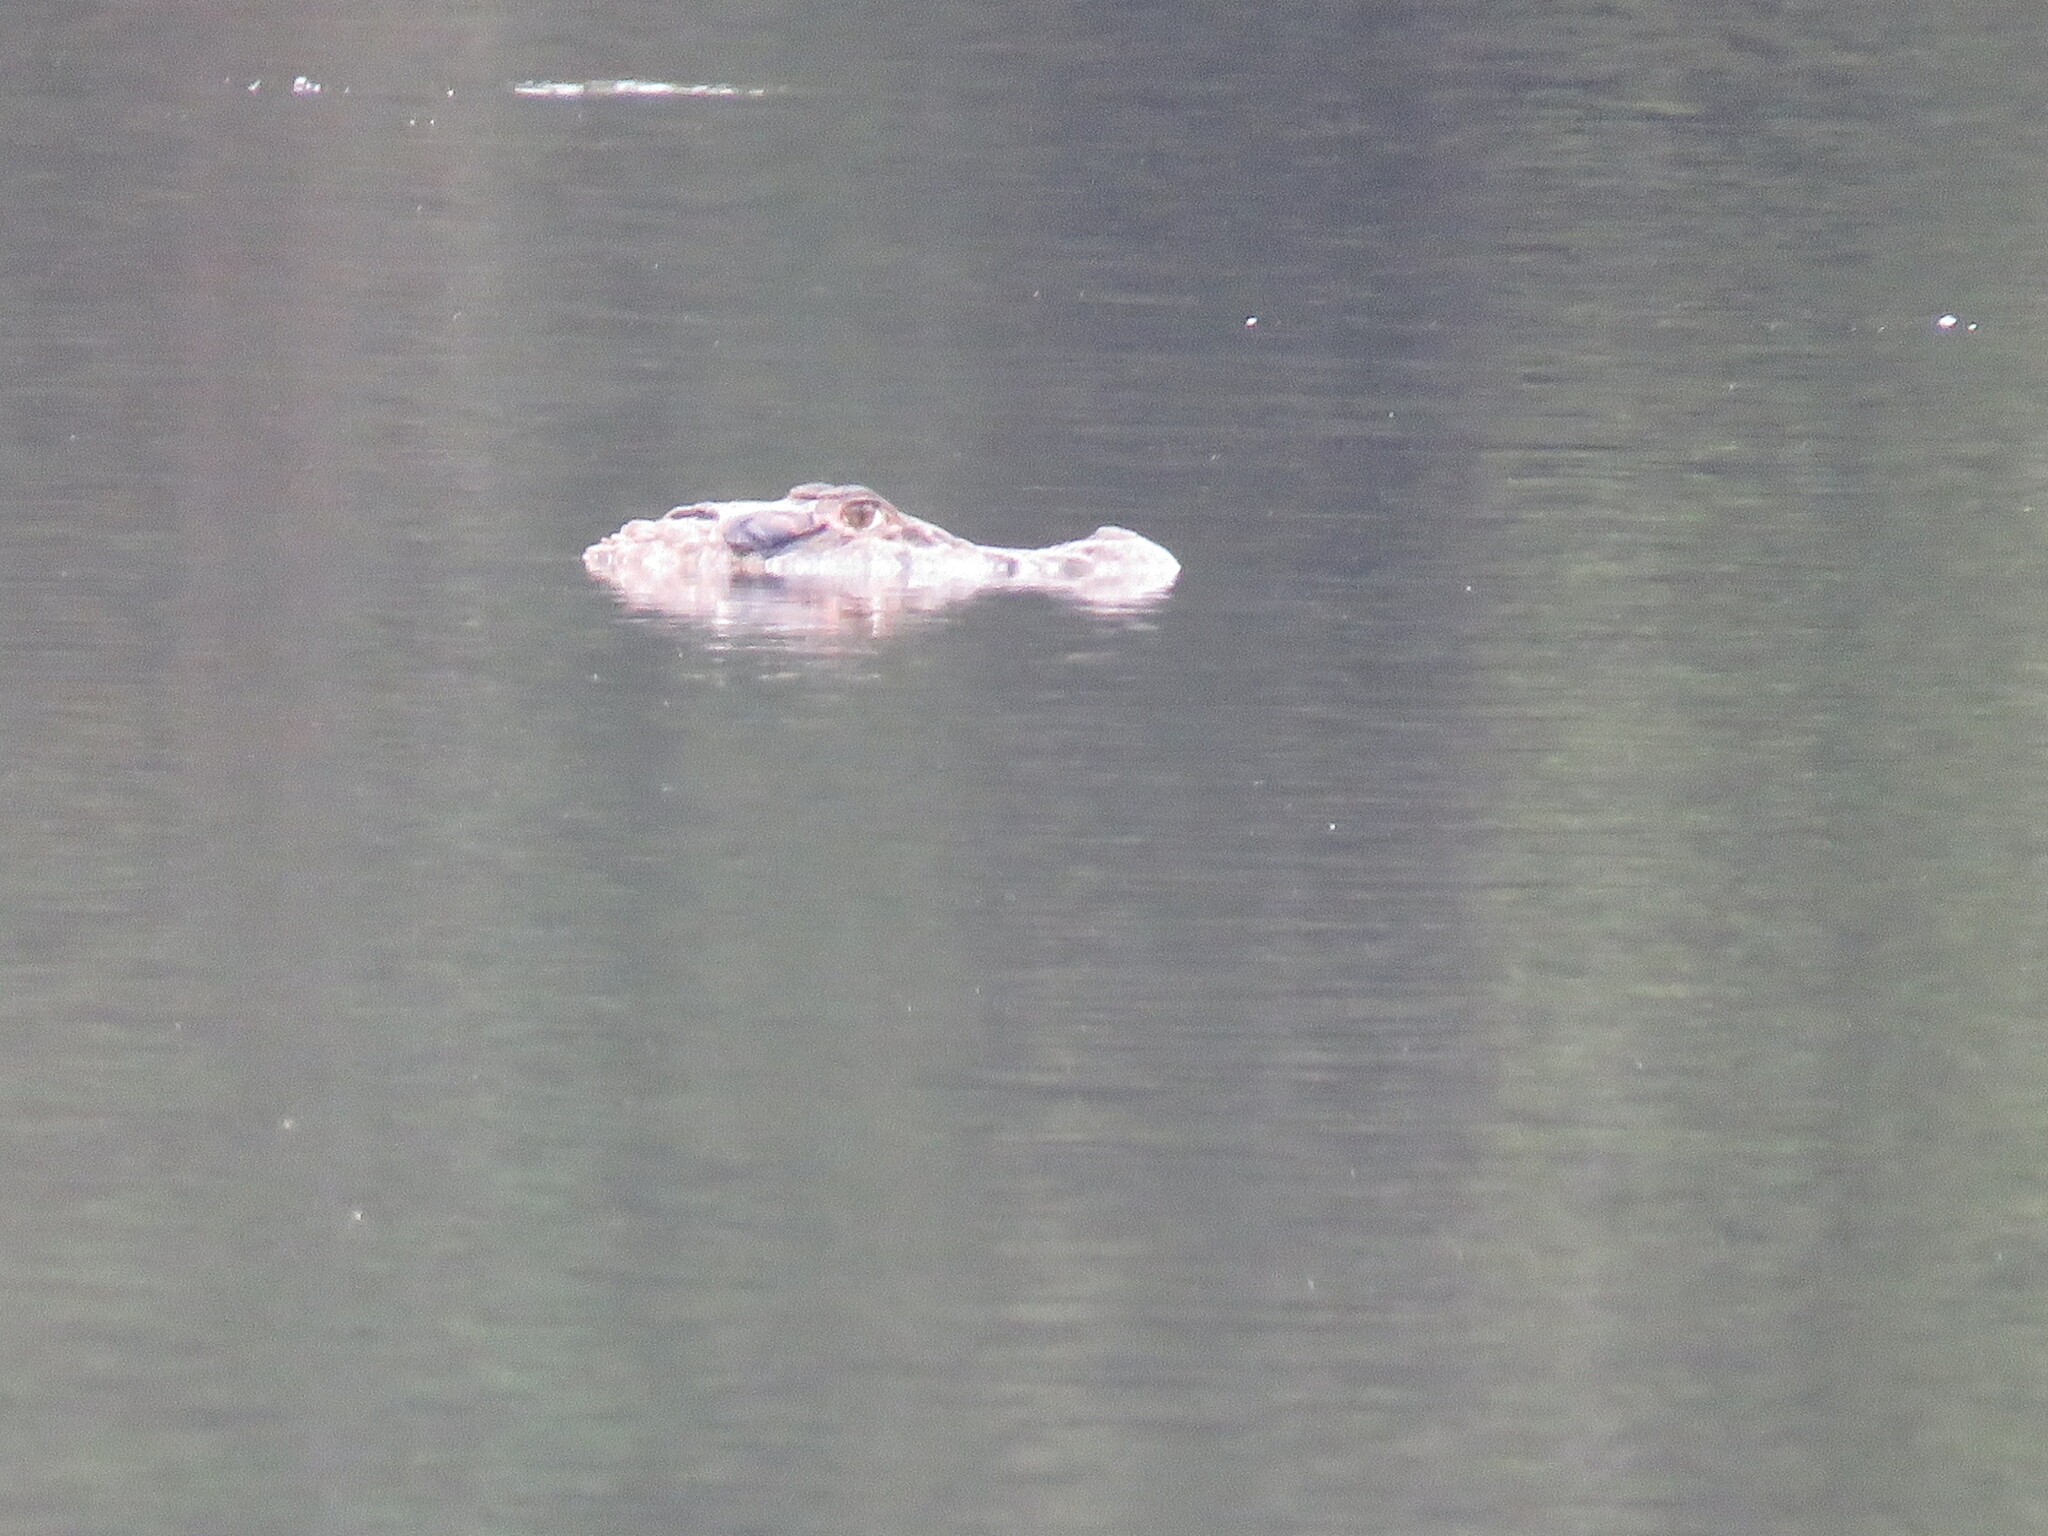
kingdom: Animalia
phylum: Chordata
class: Crocodylia
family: Alligatoridae
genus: Melanosuchus
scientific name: Melanosuchus niger
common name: Black caiman
